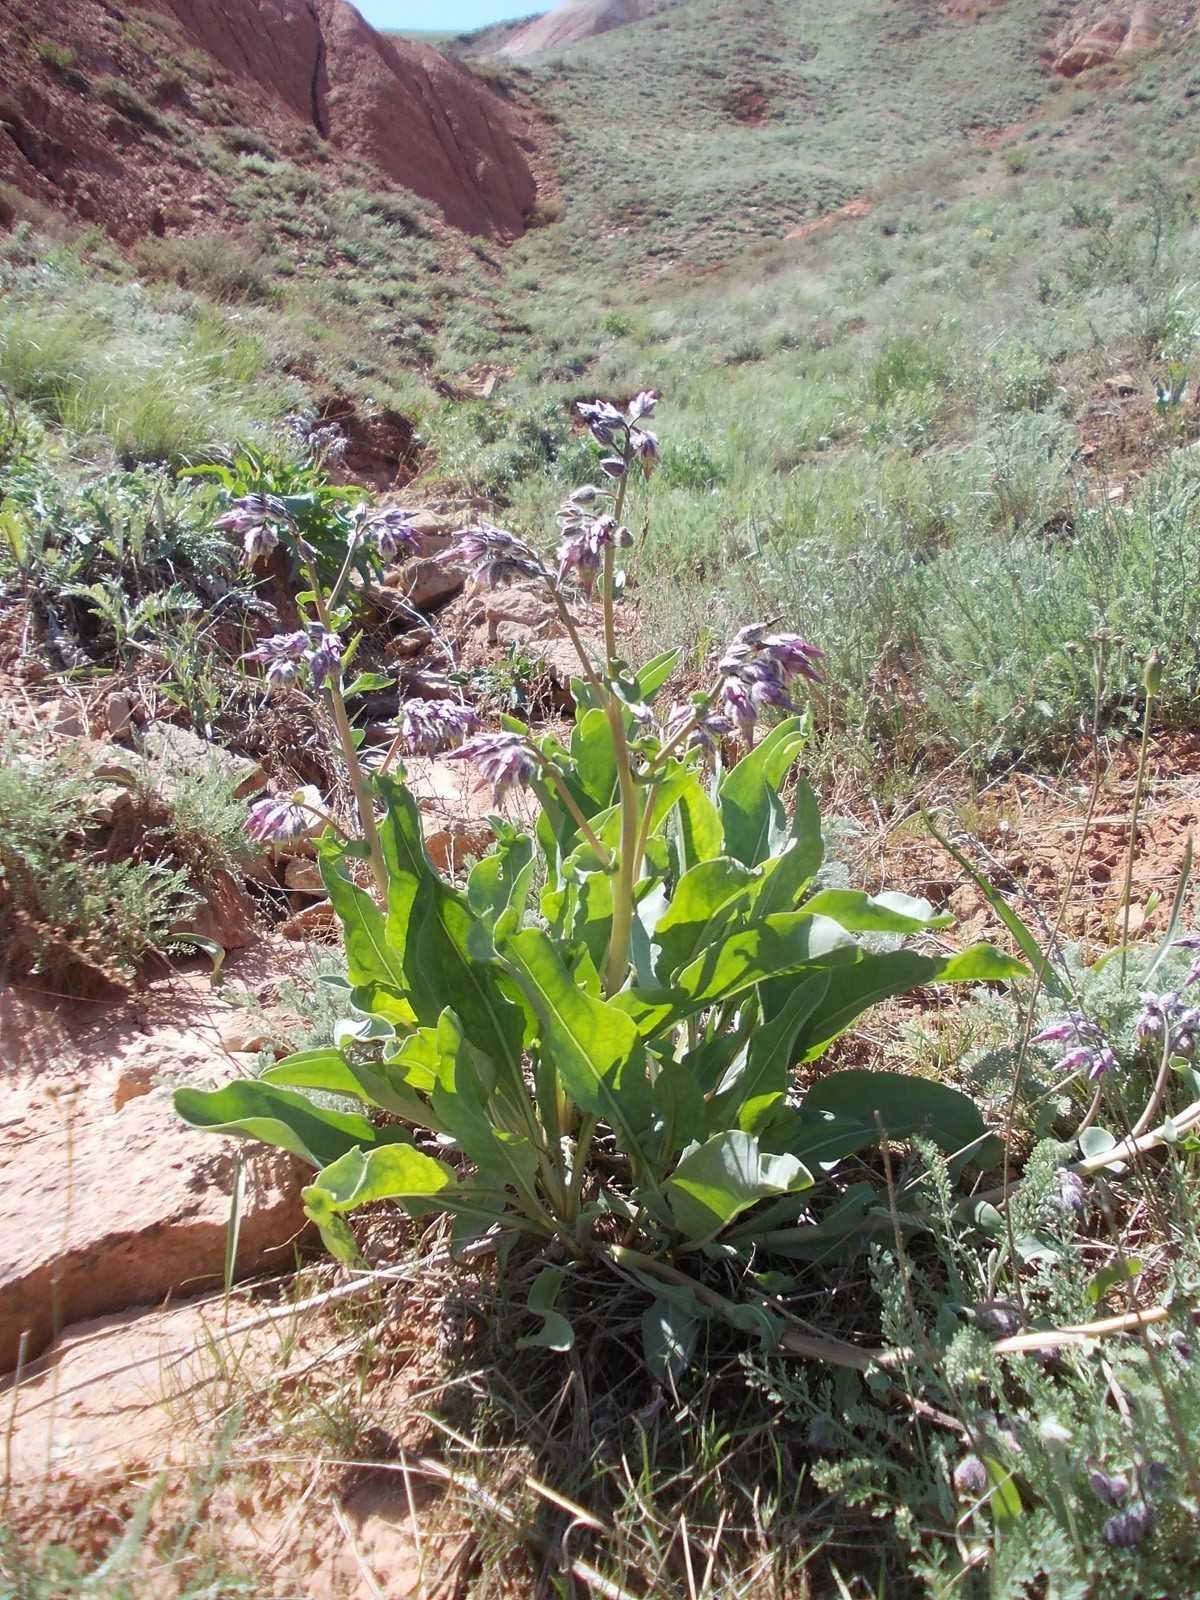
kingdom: Plantae
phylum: Tracheophyta
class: Magnoliopsida
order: Boraginales
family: Boraginaceae
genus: Rindera
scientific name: Rindera tetraspis
